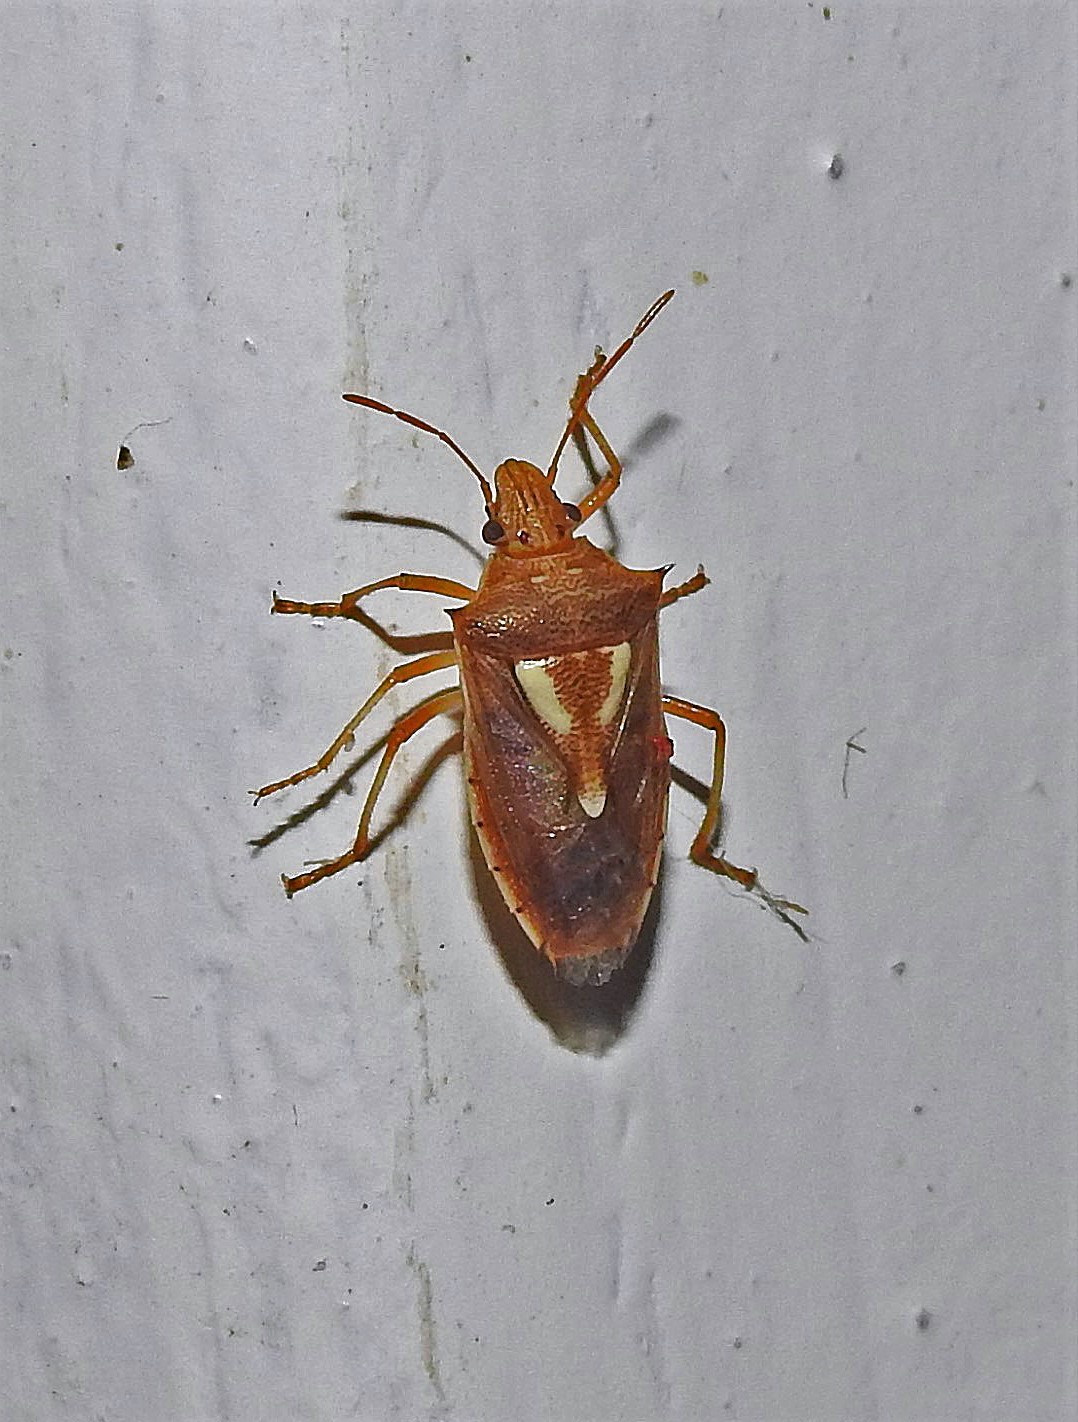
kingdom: Animalia
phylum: Arthropoda
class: Insecta
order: Hemiptera
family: Pentatomidae
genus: Oebalus
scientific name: Oebalus ypsilongriseus
